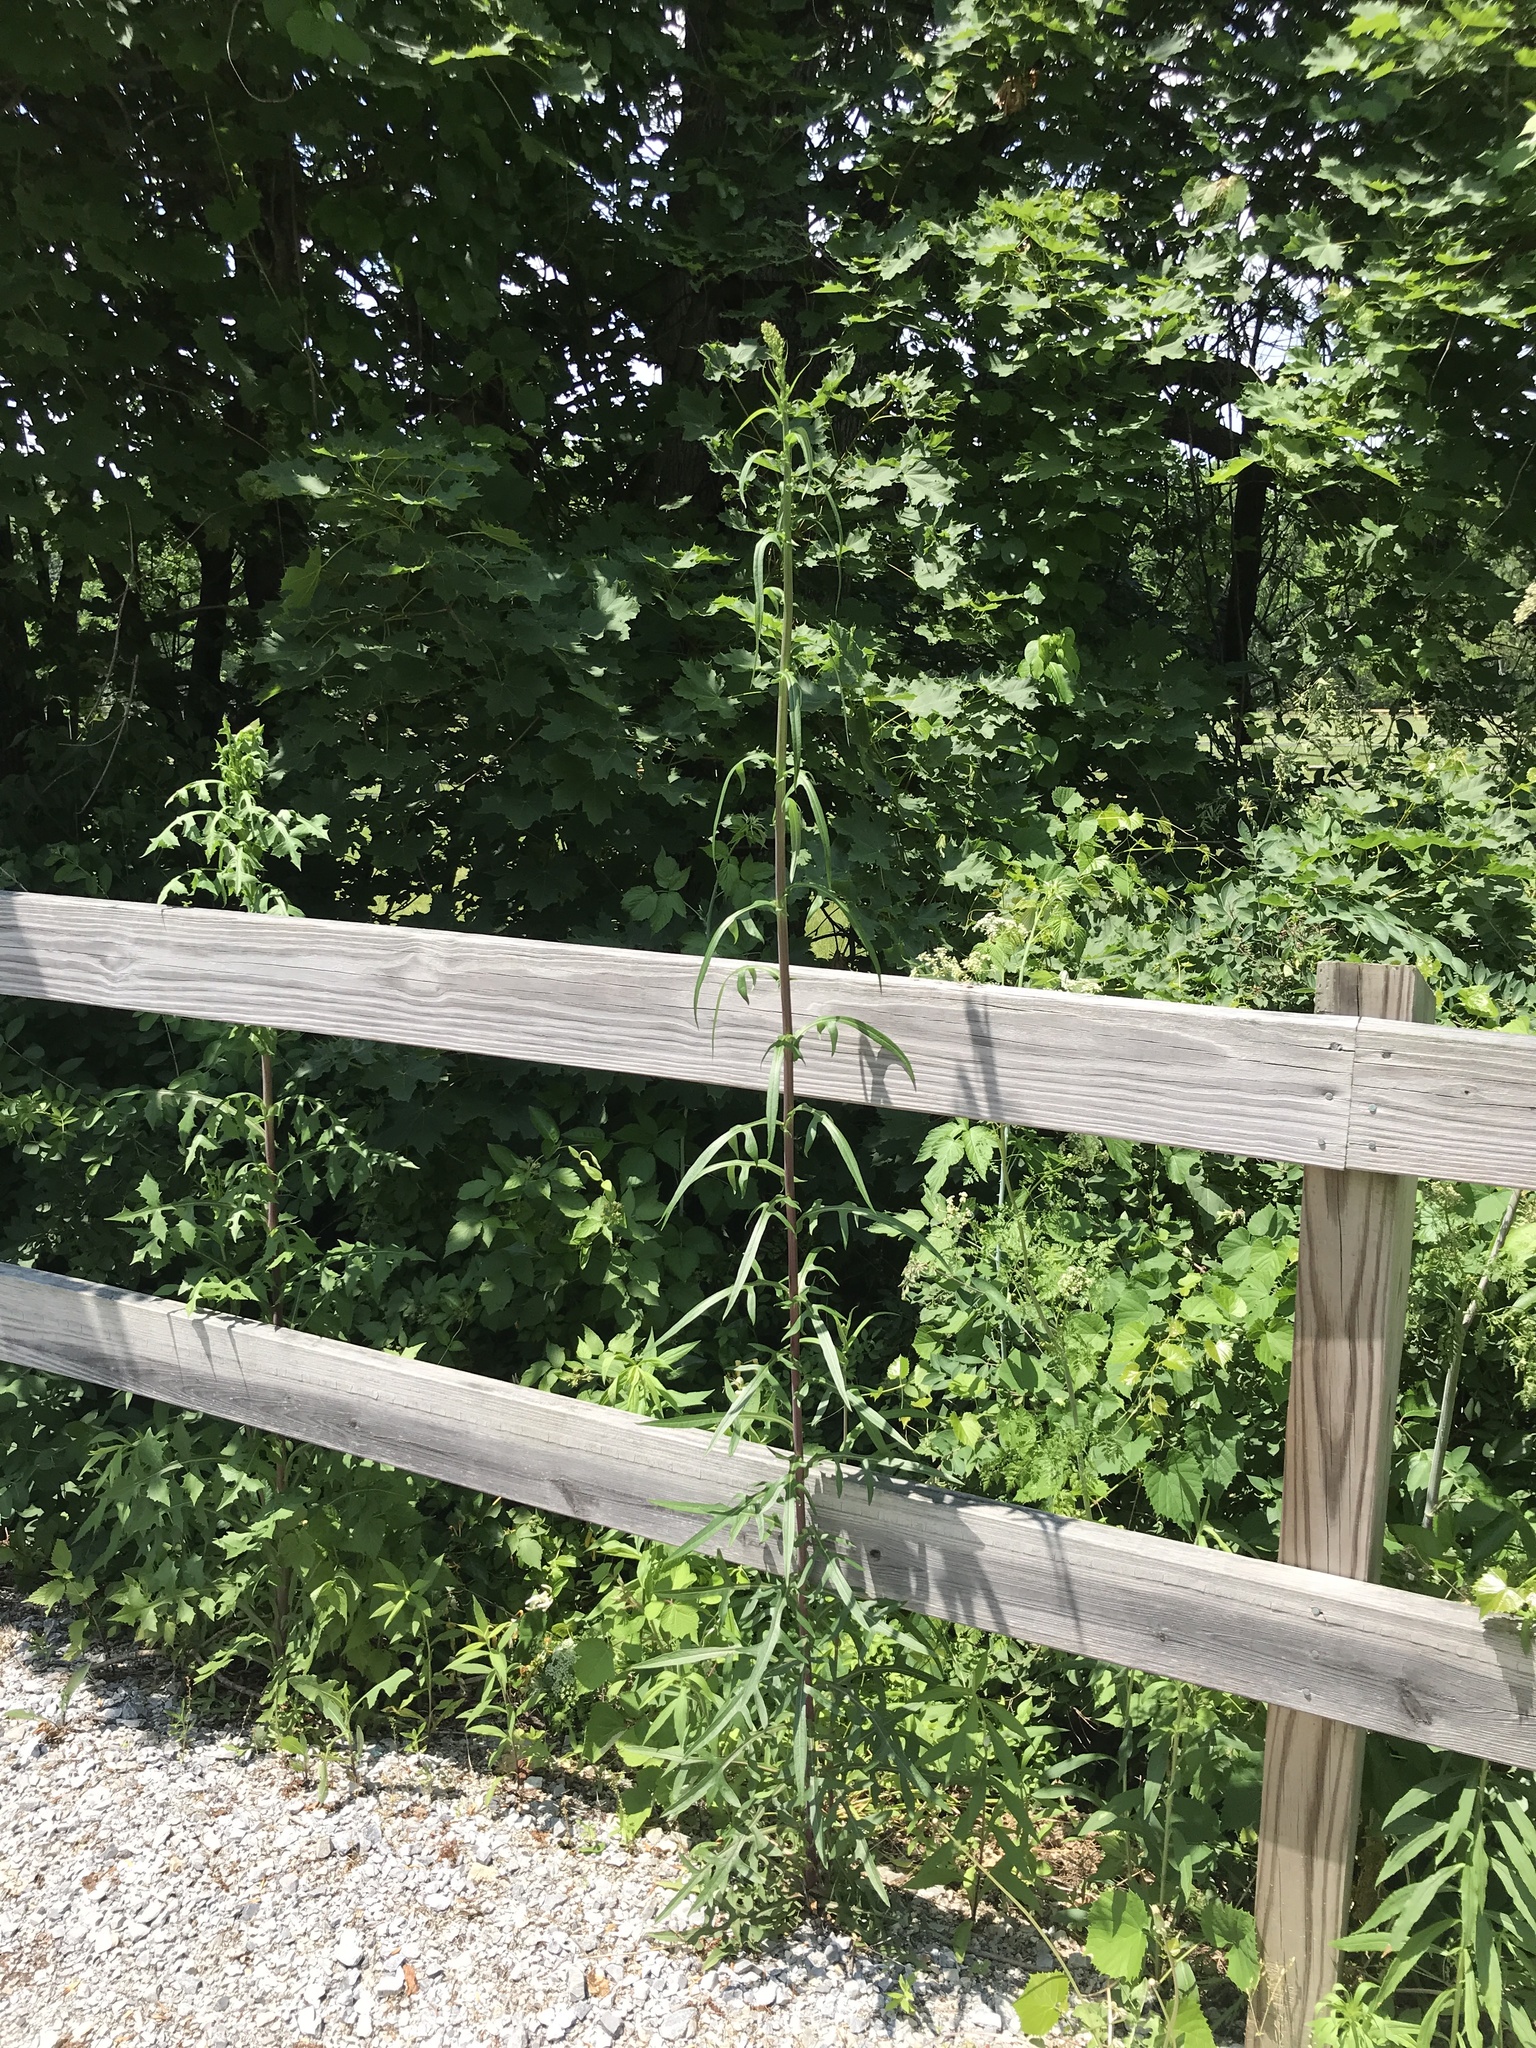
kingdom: Plantae
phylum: Tracheophyta
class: Magnoliopsida
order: Asterales
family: Asteraceae
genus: Lactuca
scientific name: Lactuca canadensis
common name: Canada lettuce
